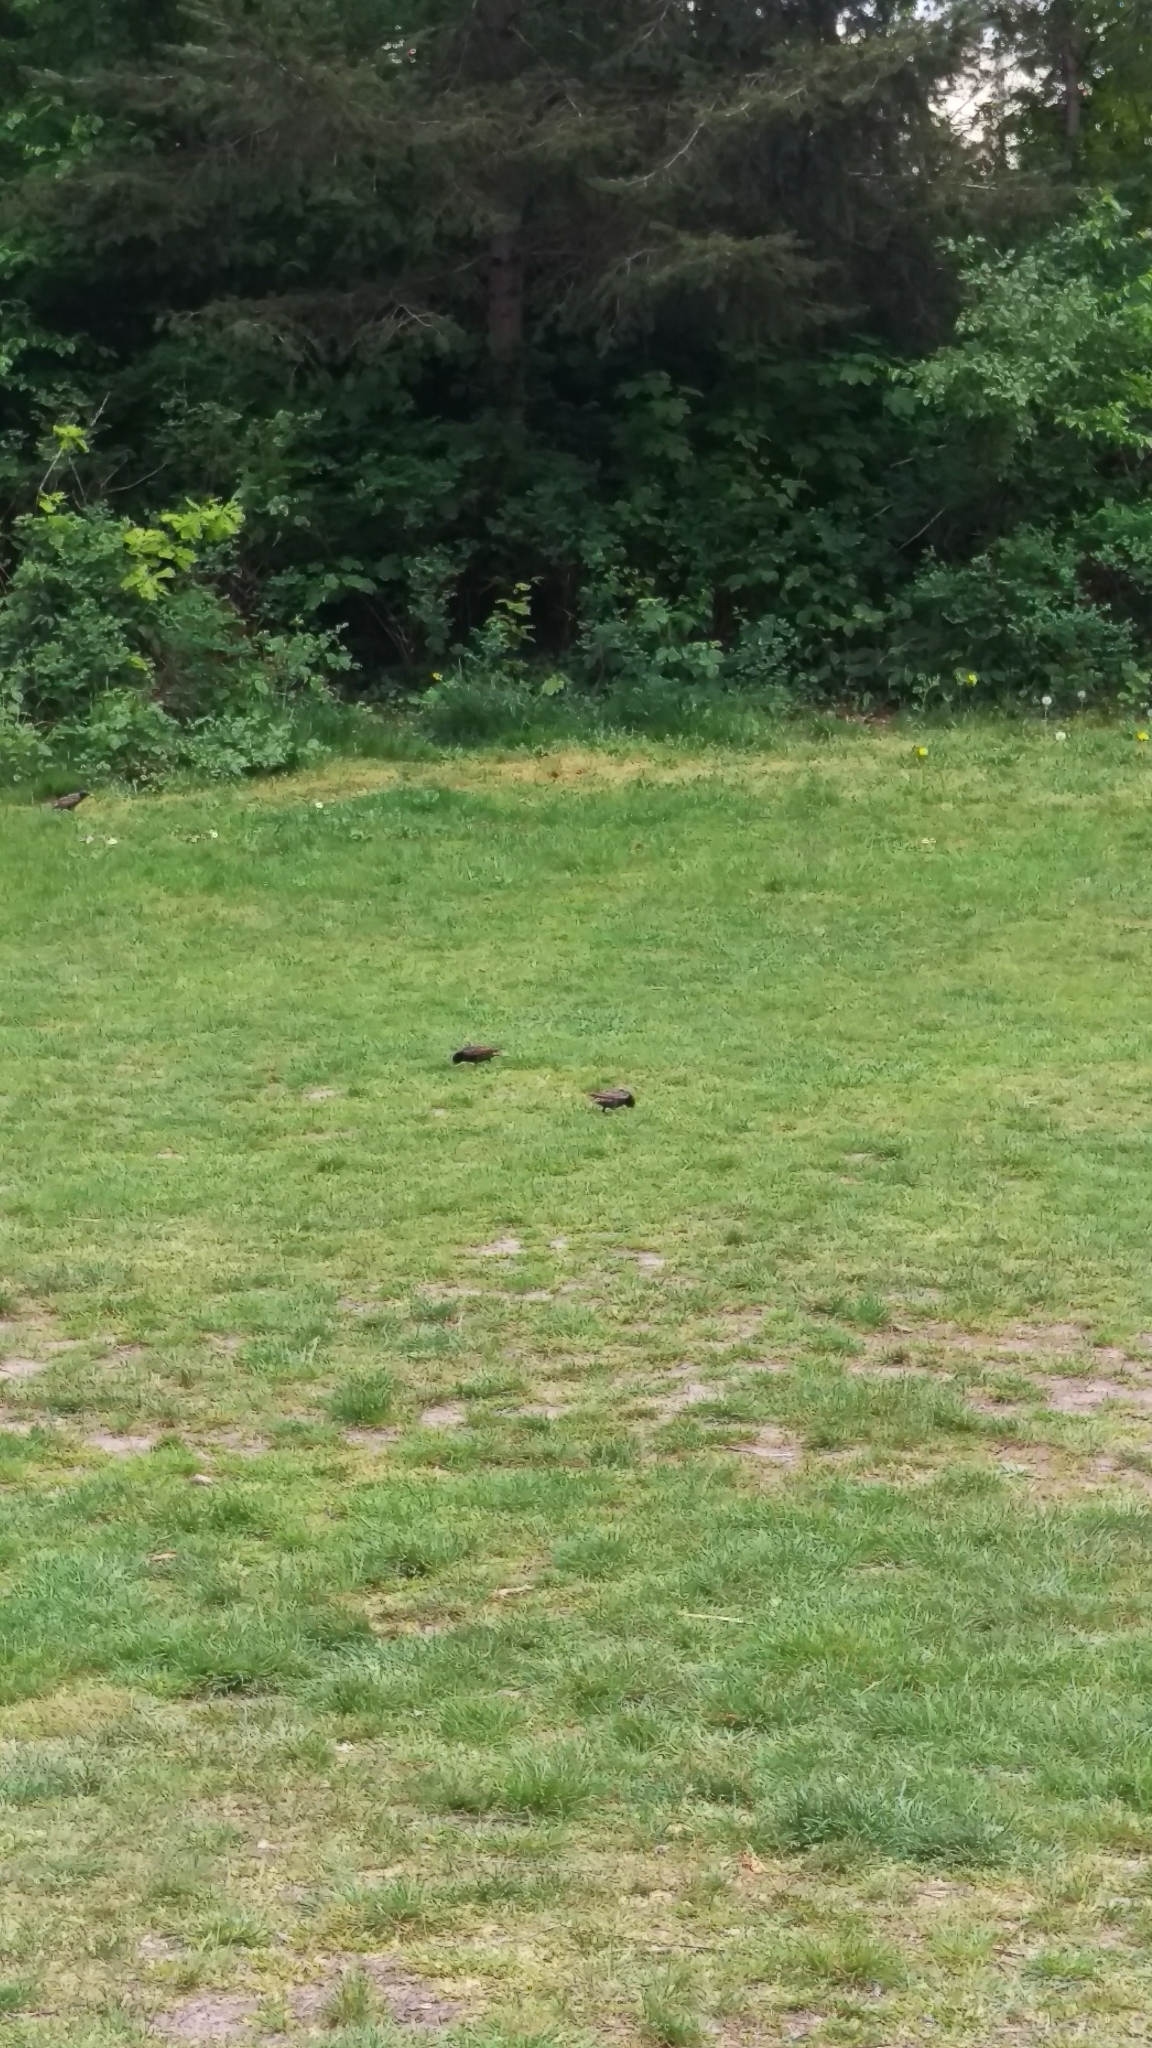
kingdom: Animalia
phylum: Chordata
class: Aves
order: Passeriformes
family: Sturnidae
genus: Sturnus
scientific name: Sturnus vulgaris
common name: Common starling
